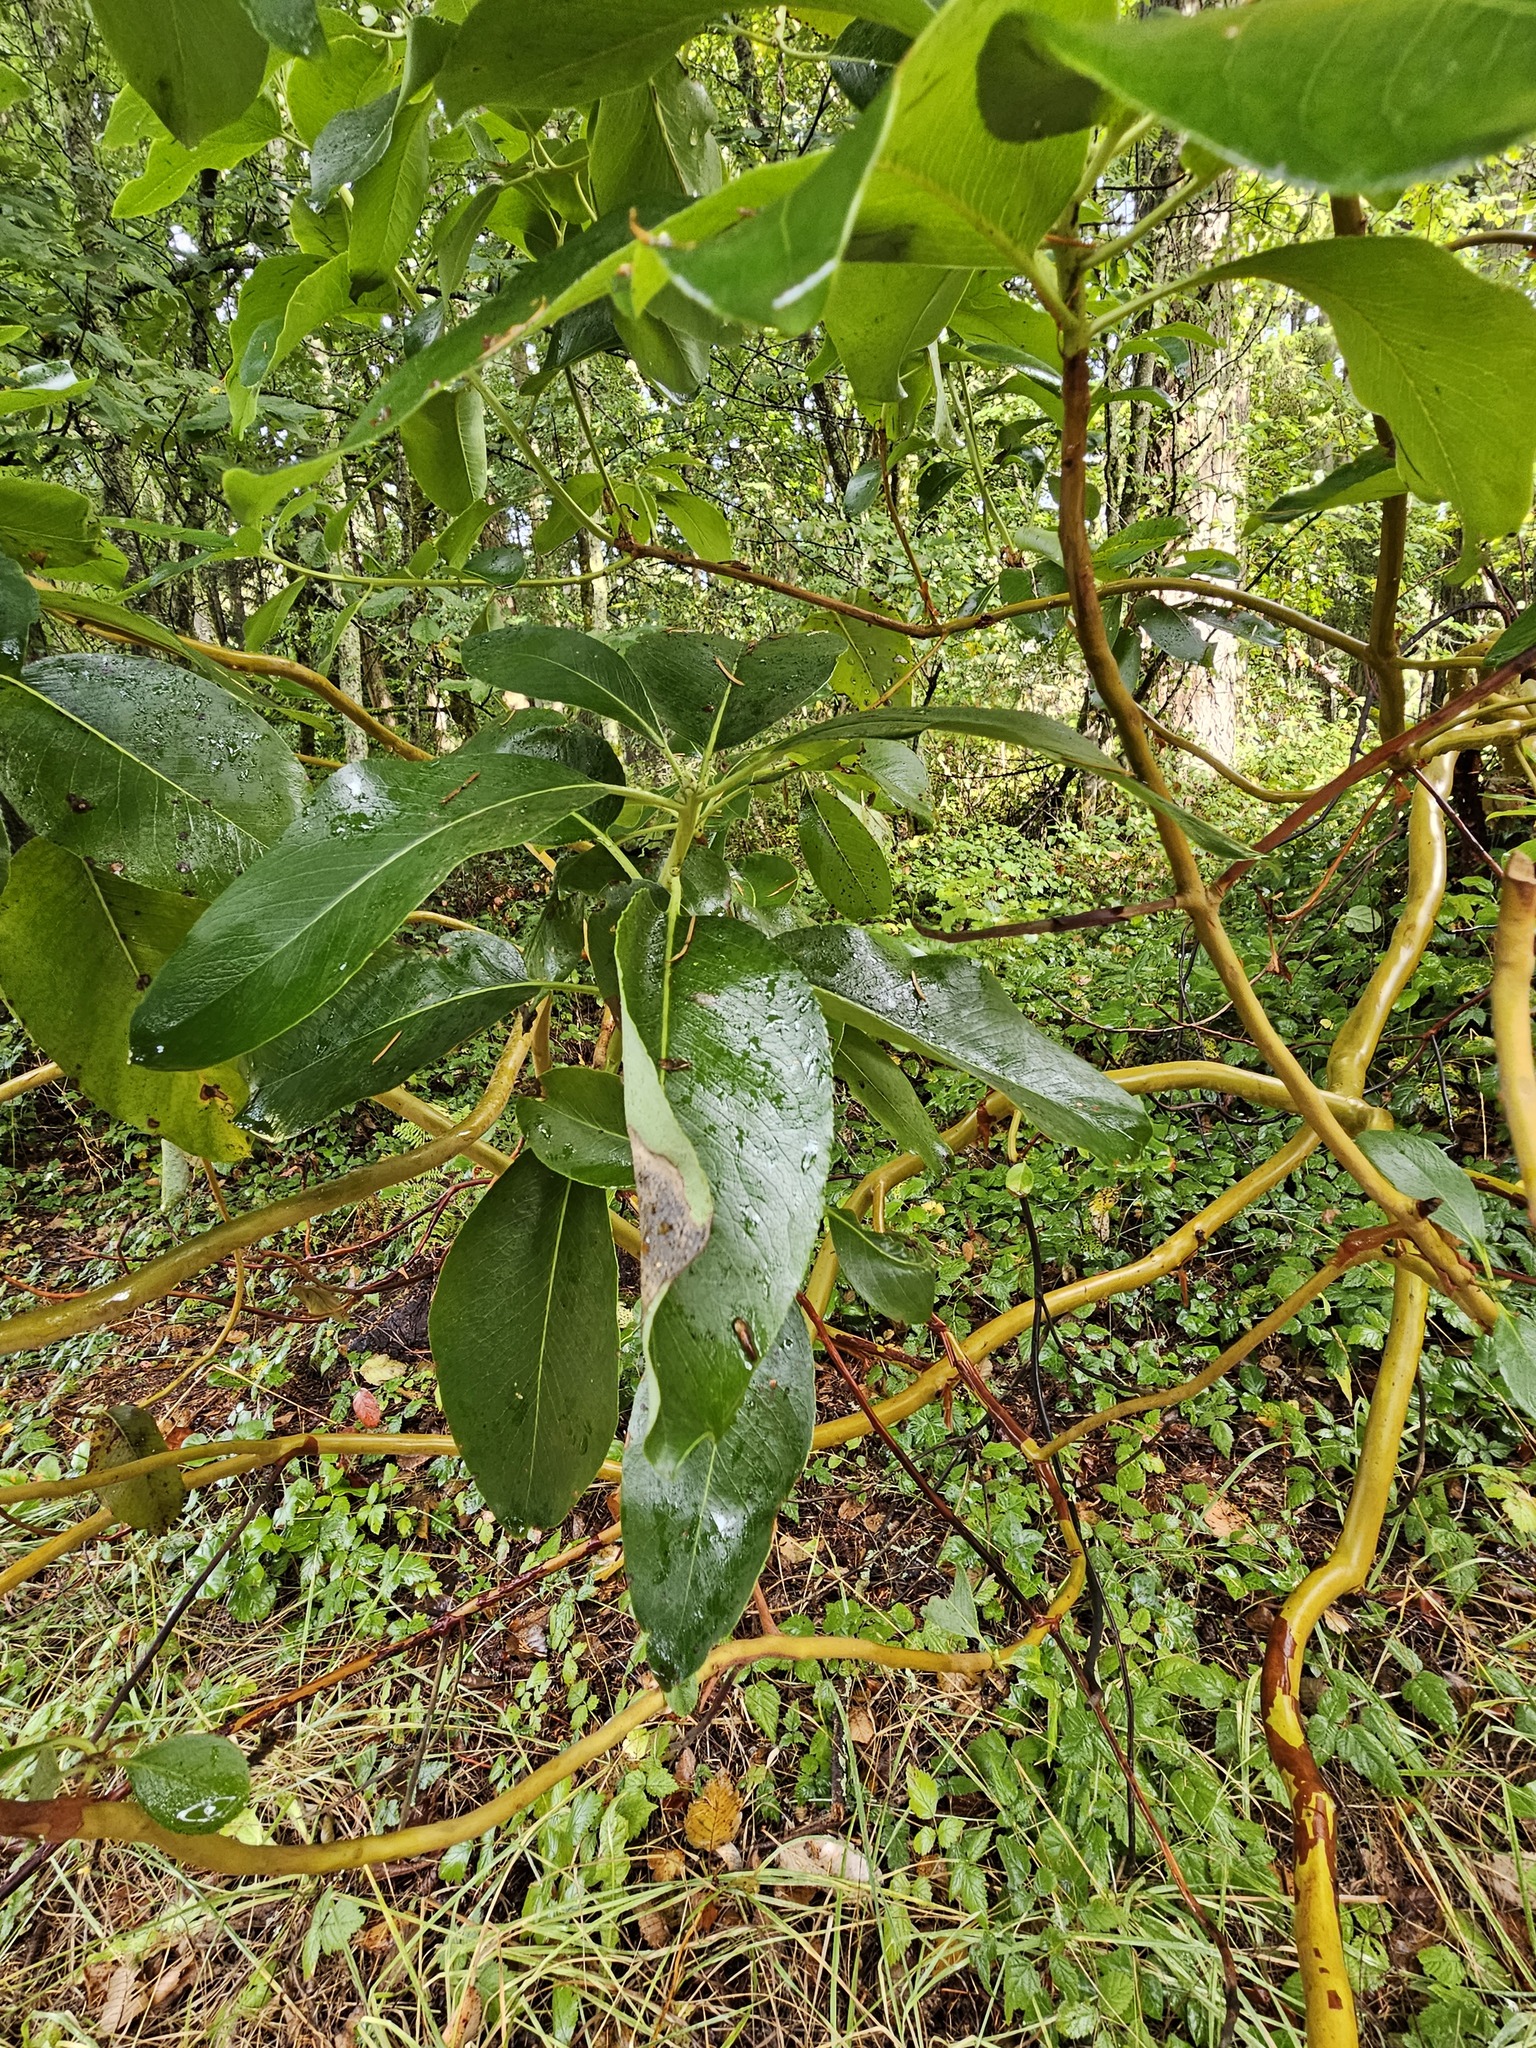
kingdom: Plantae
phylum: Tracheophyta
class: Magnoliopsida
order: Ericales
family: Ericaceae
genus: Arbutus
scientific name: Arbutus menziesii
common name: Pacific madrone
